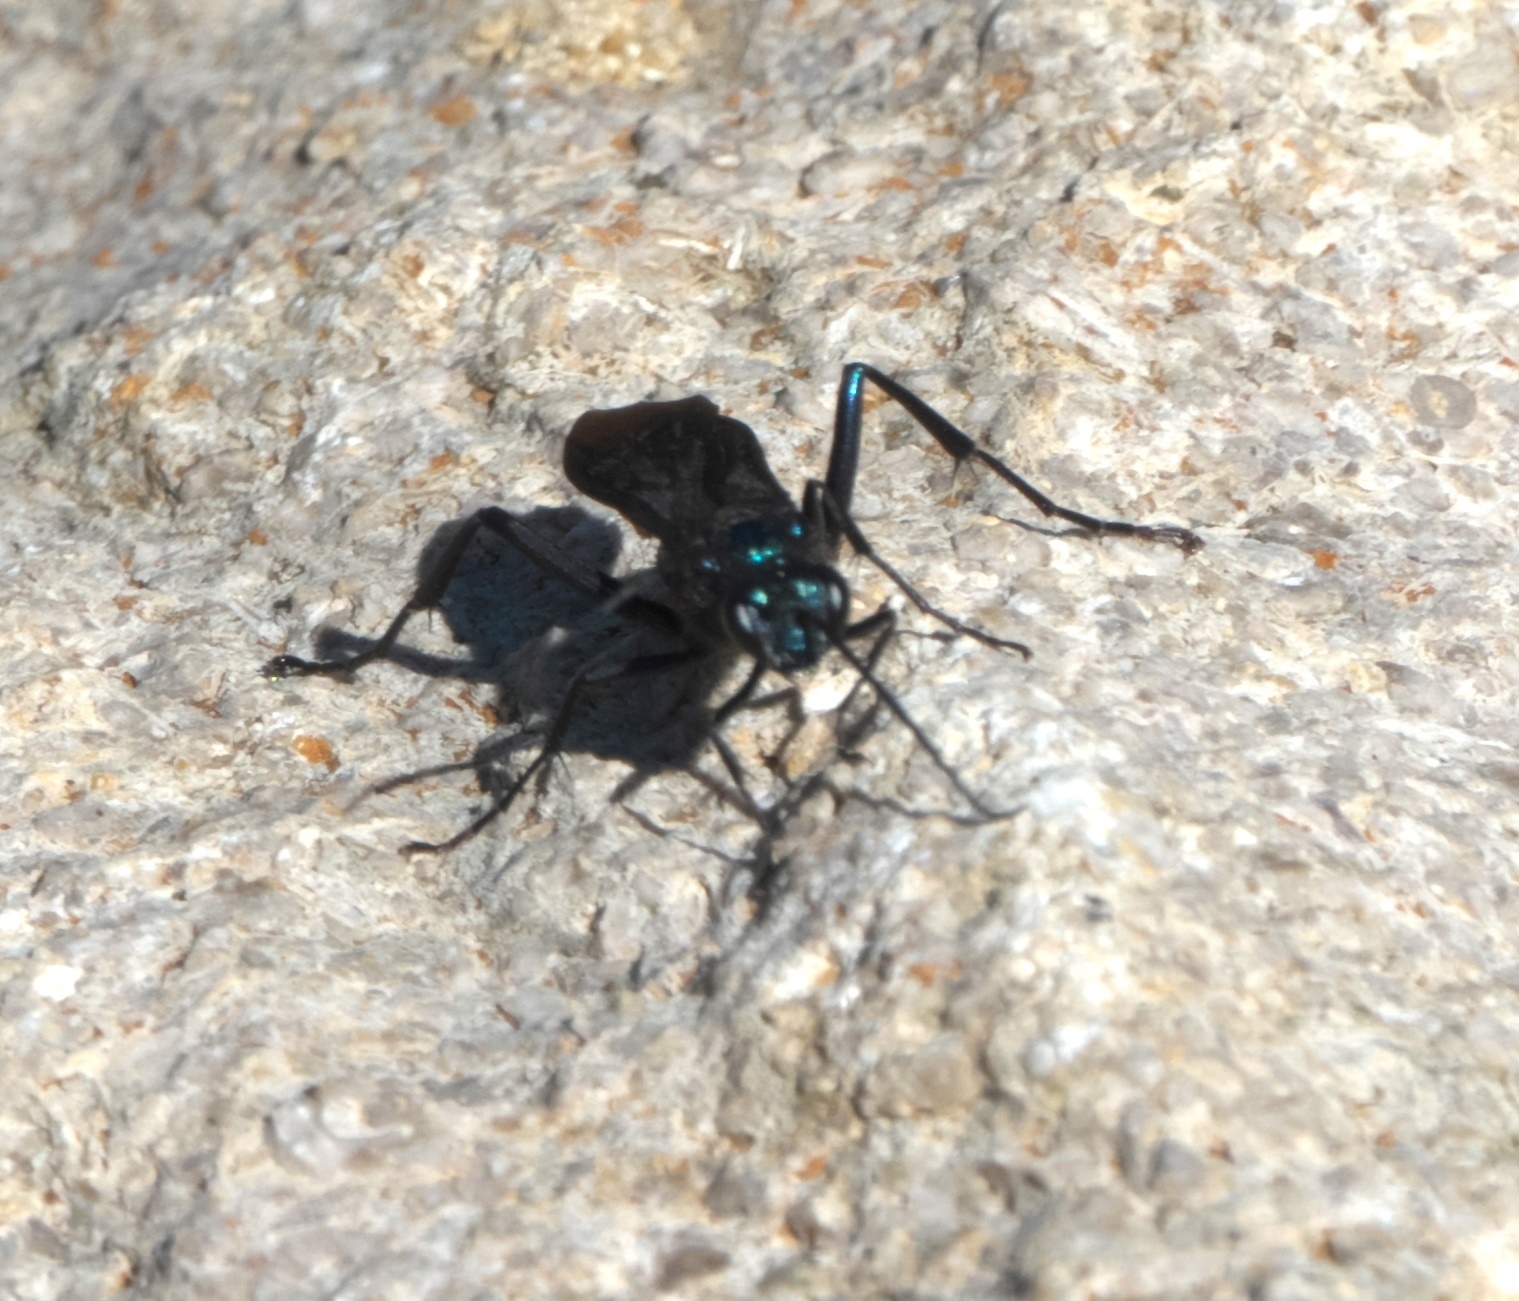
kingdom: Animalia
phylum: Arthropoda
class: Insecta
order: Hymenoptera
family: Sphecidae
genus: Chalybion
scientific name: Chalybion californicum
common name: Mud dauber
